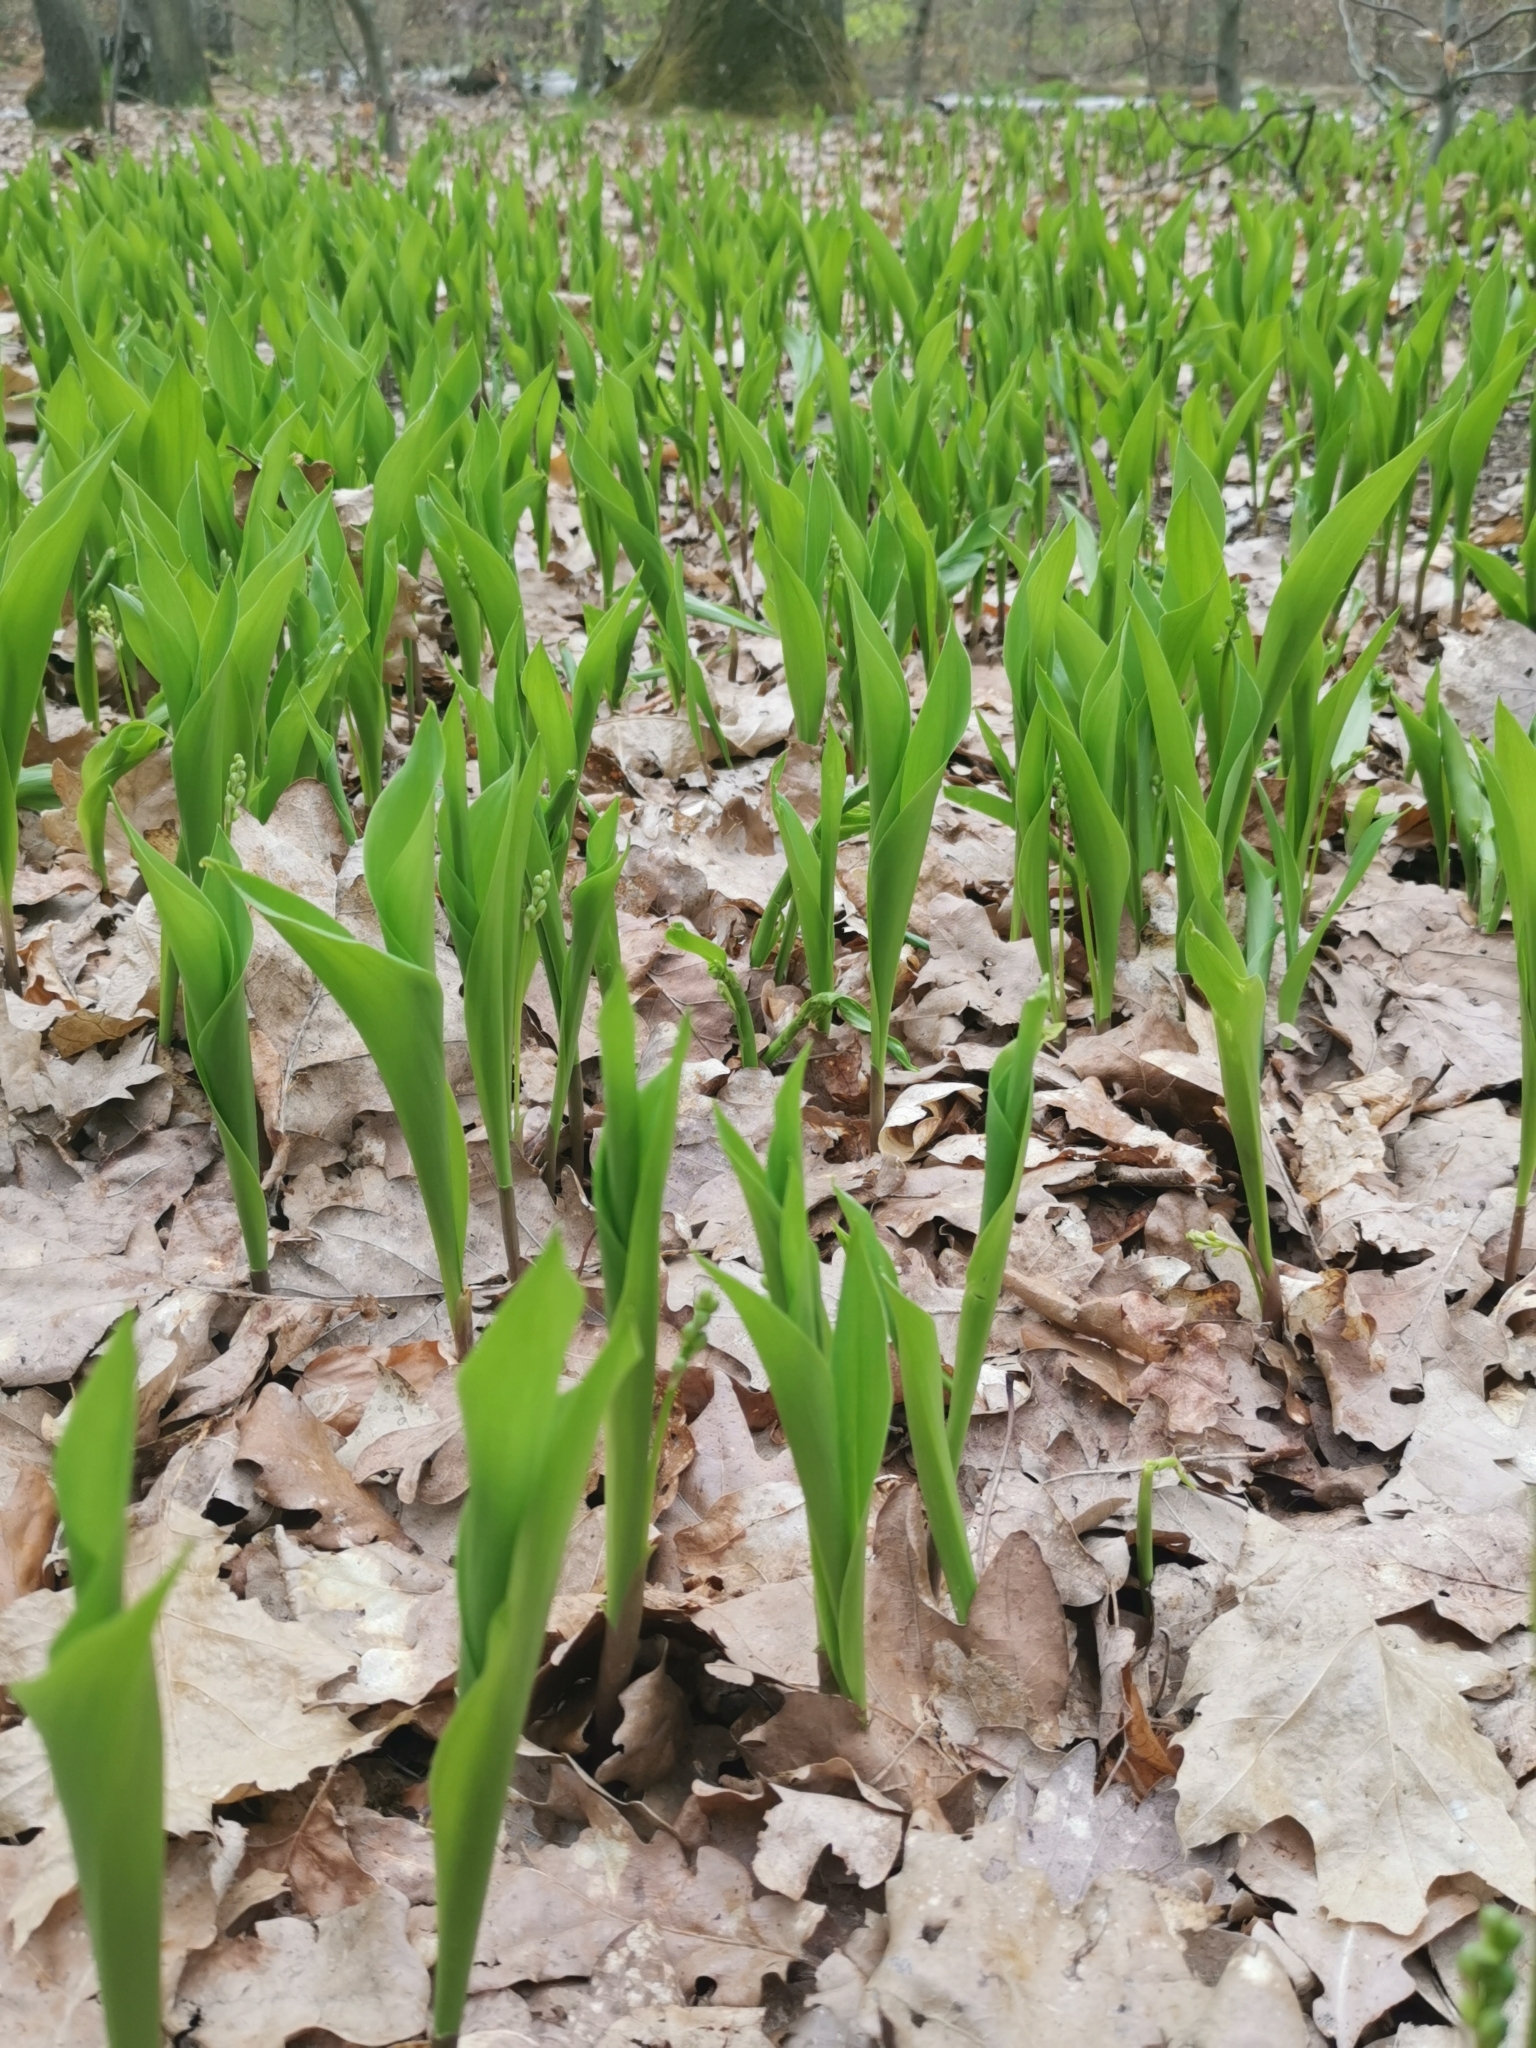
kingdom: Plantae
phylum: Tracheophyta
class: Liliopsida
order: Asparagales
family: Asparagaceae
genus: Convallaria
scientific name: Convallaria majalis
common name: Lily-of-the-valley
